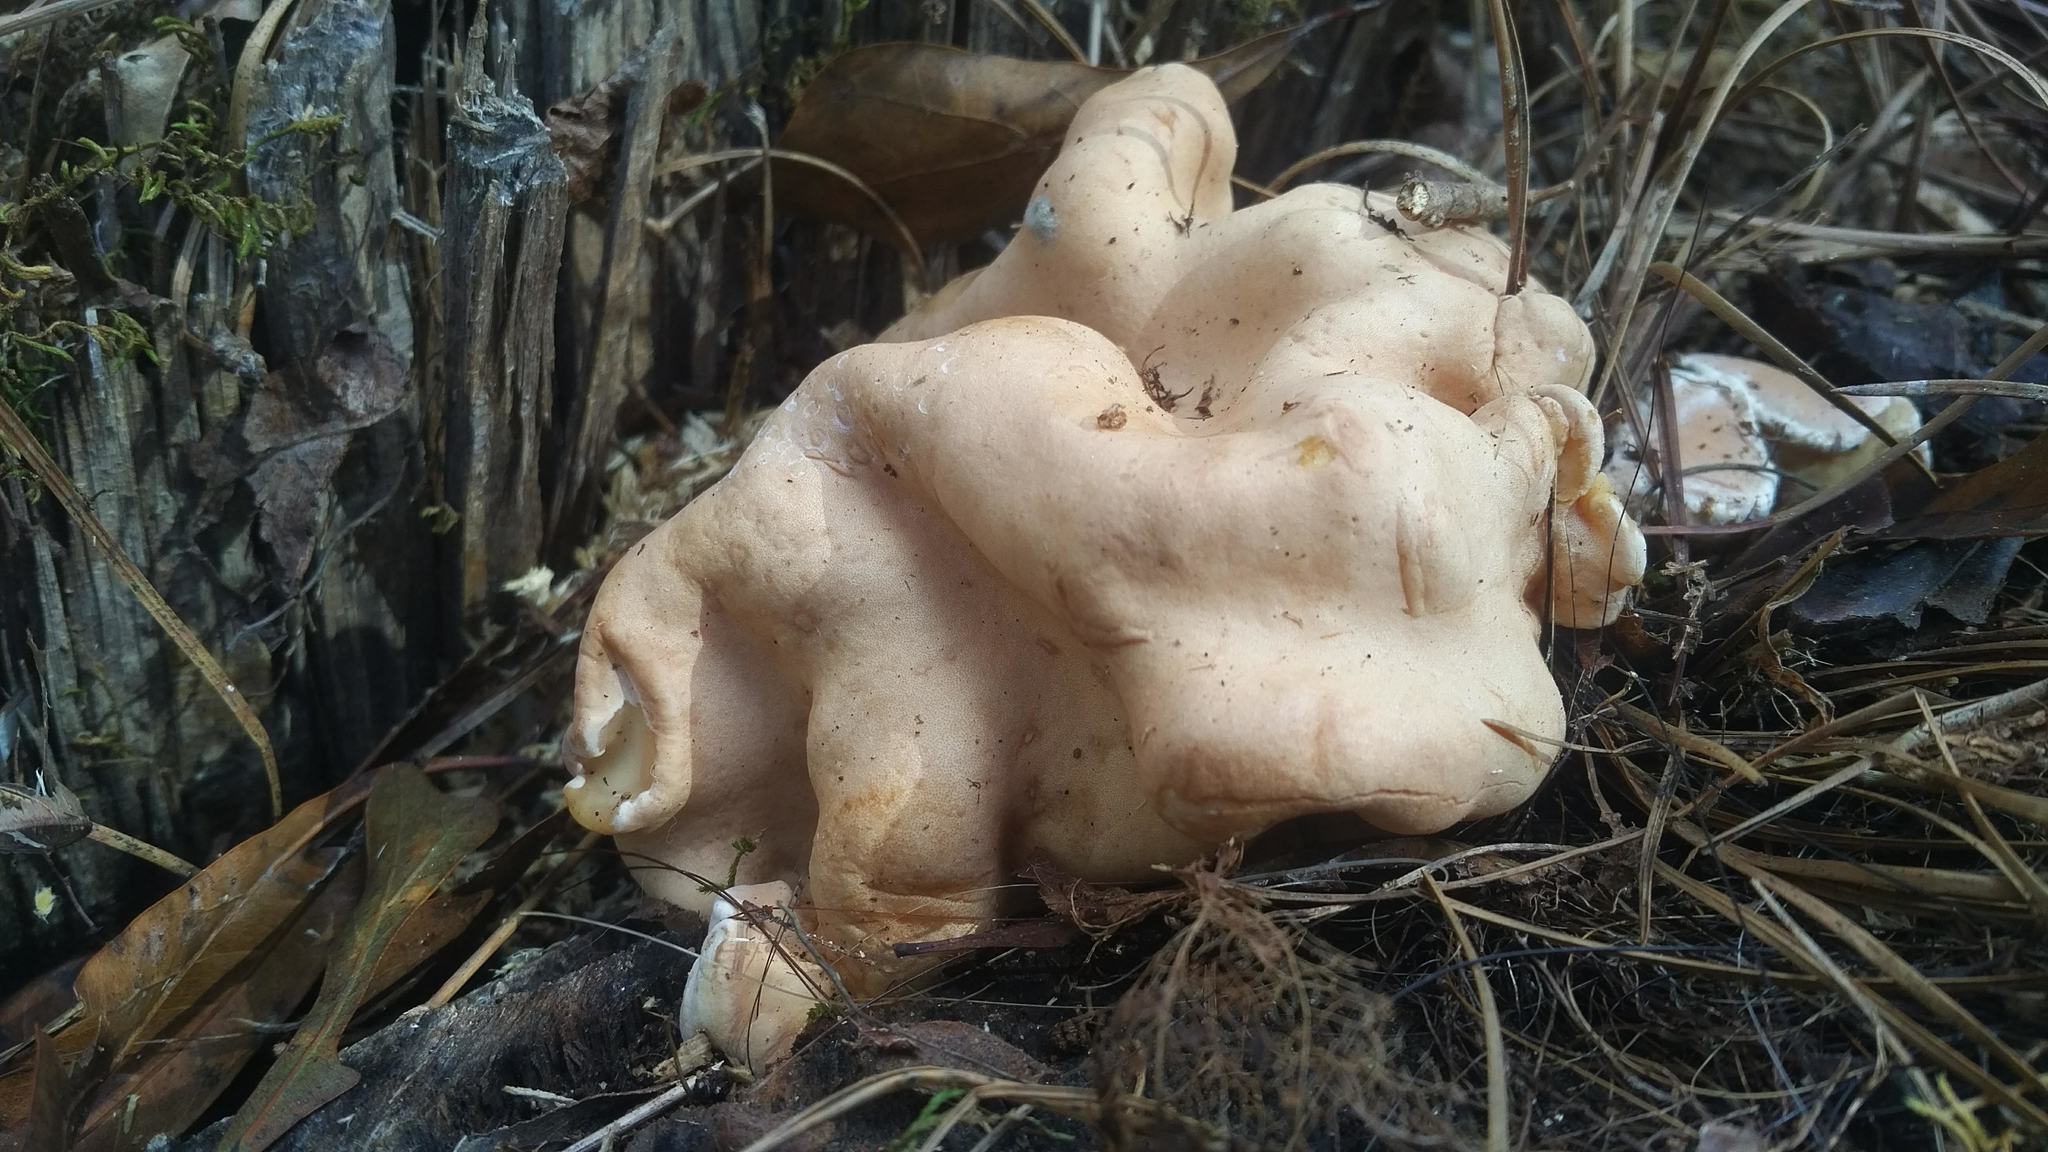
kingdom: Fungi
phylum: Ascomycota
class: Sordariomycetes
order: Hypocreales
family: Hypocreaceae
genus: Trichoderma
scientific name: Trichoderma peltatum
